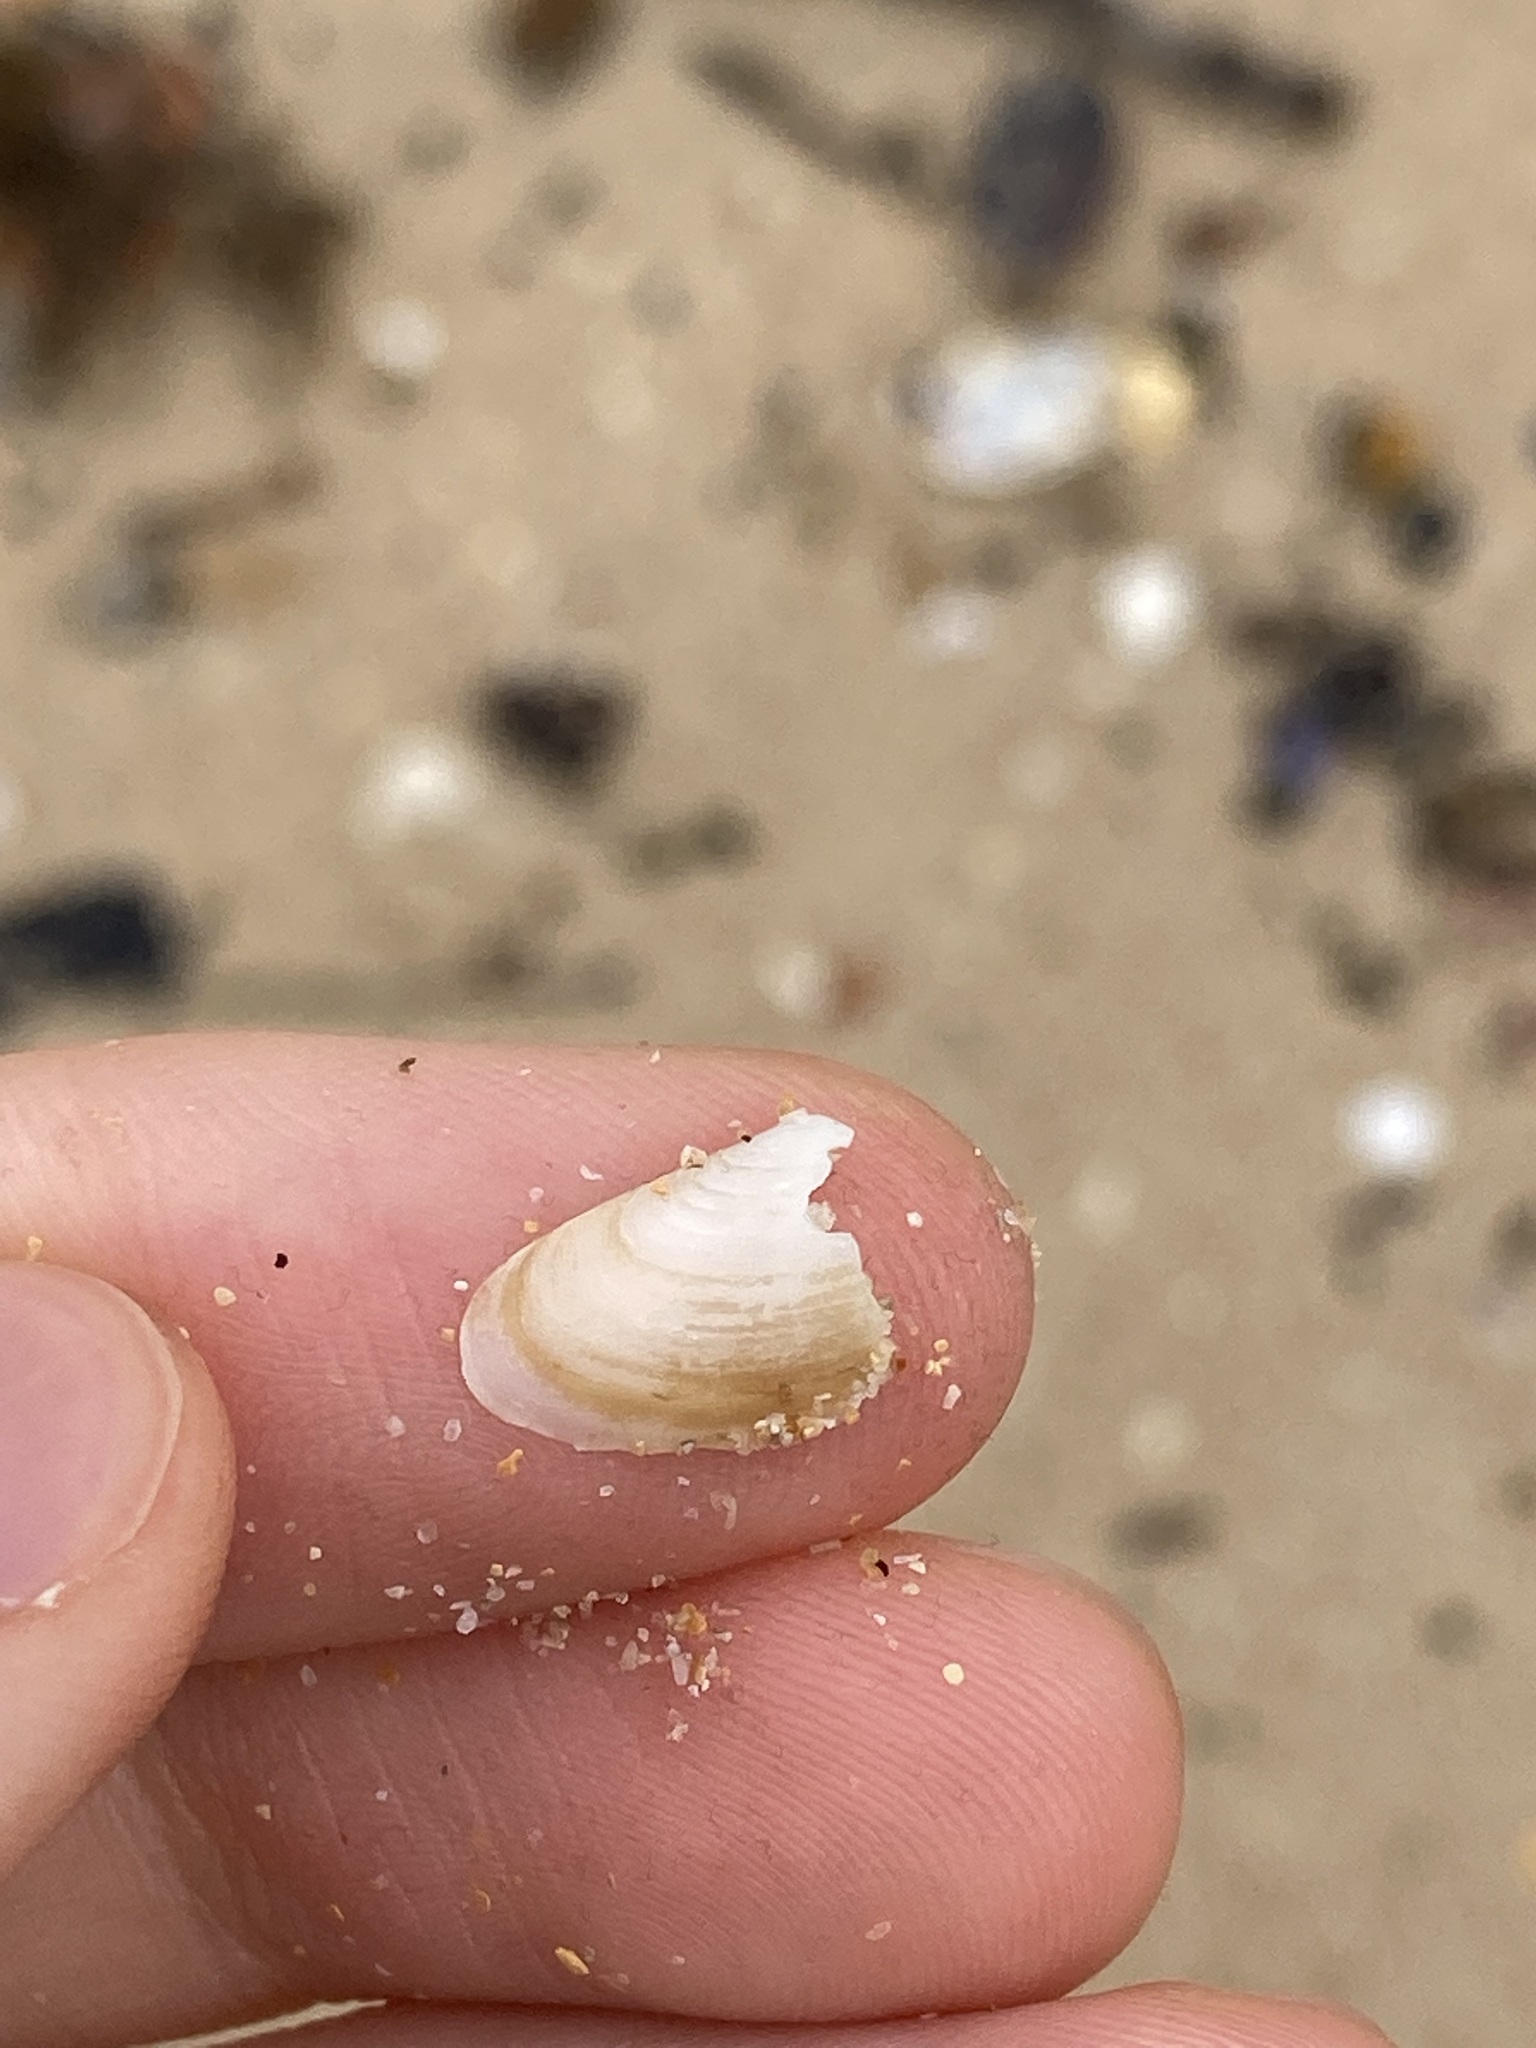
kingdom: Animalia
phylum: Mollusca
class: Bivalvia
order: Venerida
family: Mesodesmatidae
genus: Paphies
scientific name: Paphies angusta
